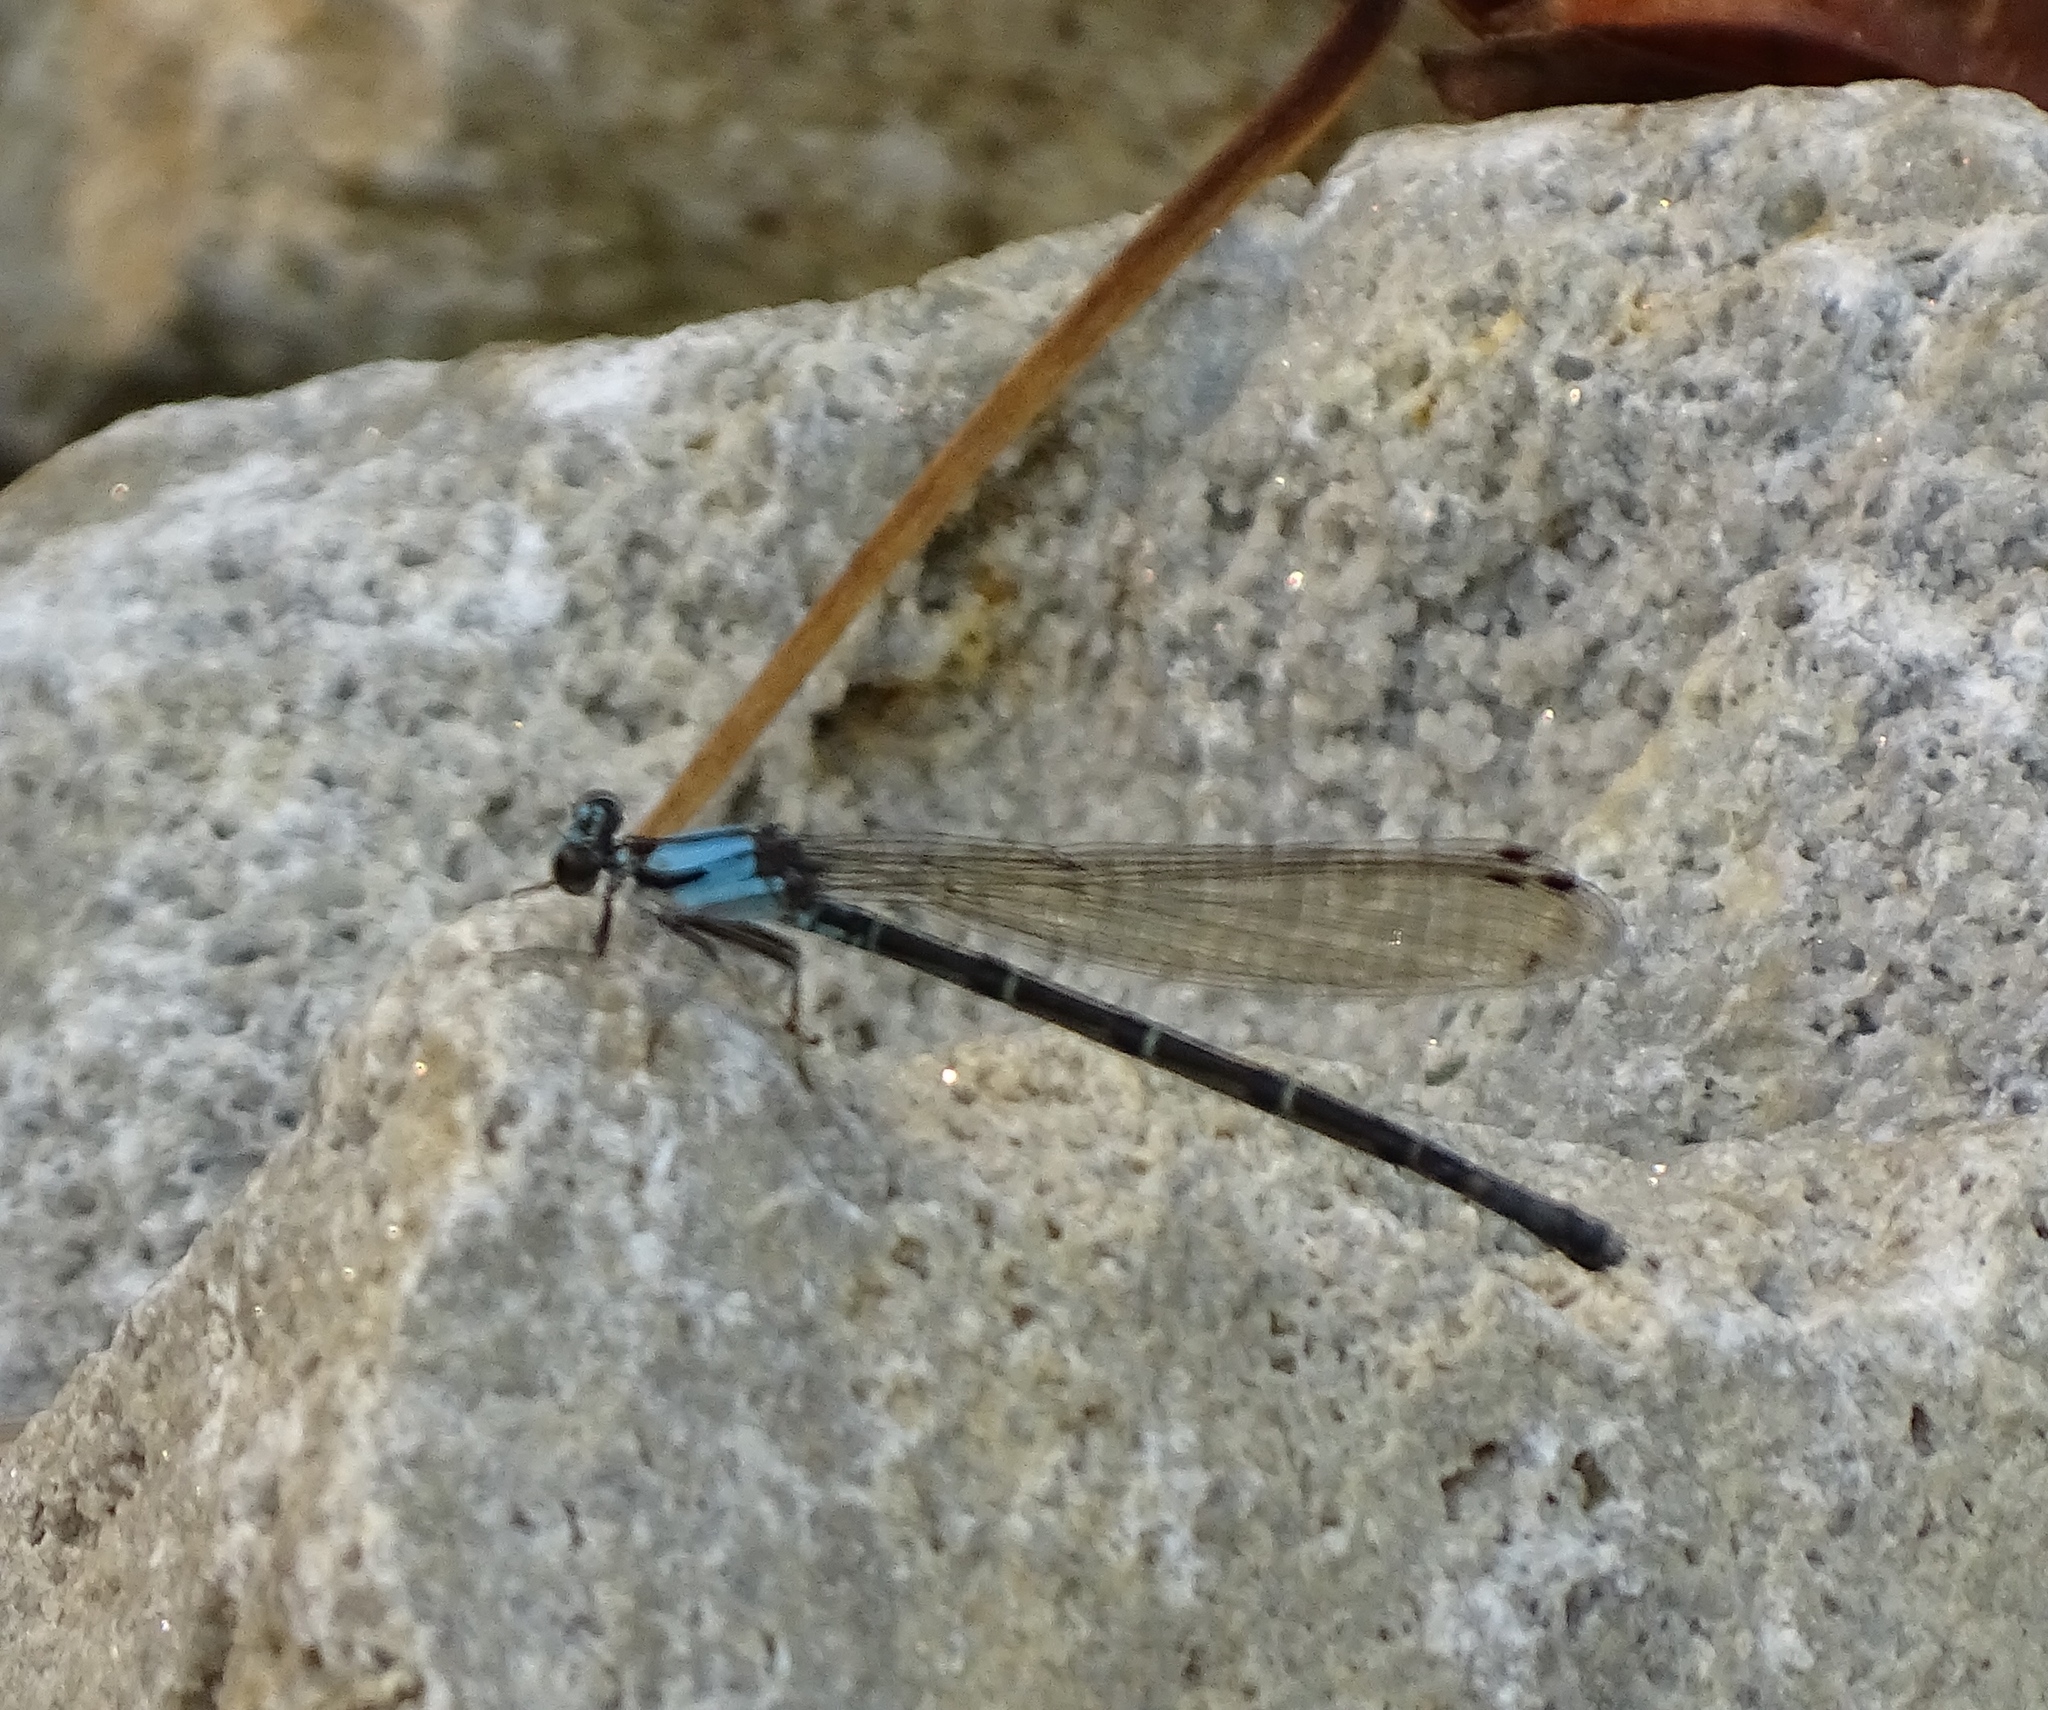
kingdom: Animalia
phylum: Arthropoda
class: Insecta
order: Odonata
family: Coenagrionidae
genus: Argia
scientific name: Argia tibialis
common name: Blue-tipped dancer
